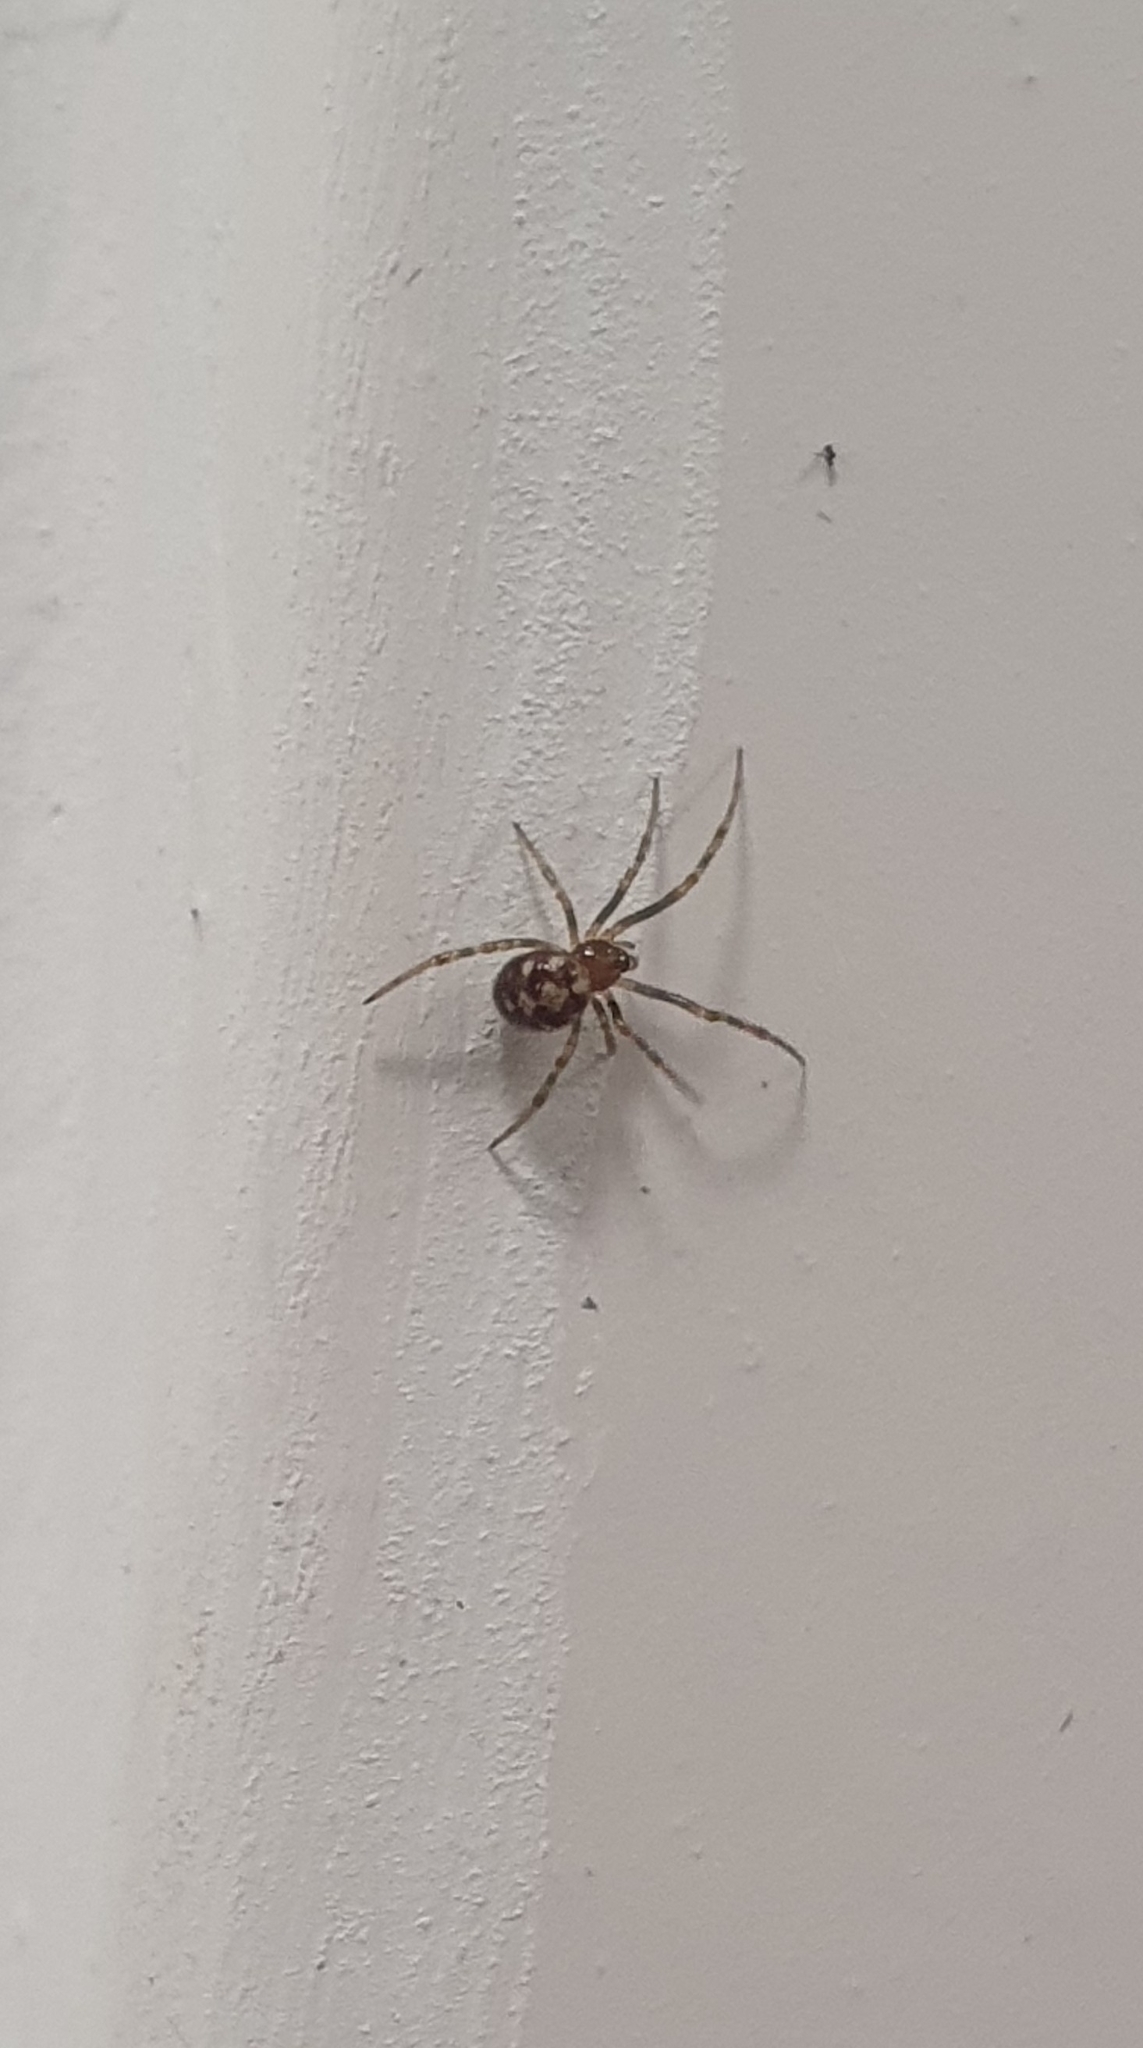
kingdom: Animalia
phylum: Arthropoda
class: Arachnida
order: Araneae
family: Theridiidae
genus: Steatoda
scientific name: Steatoda triangulosa
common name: Triangulate bud spider
